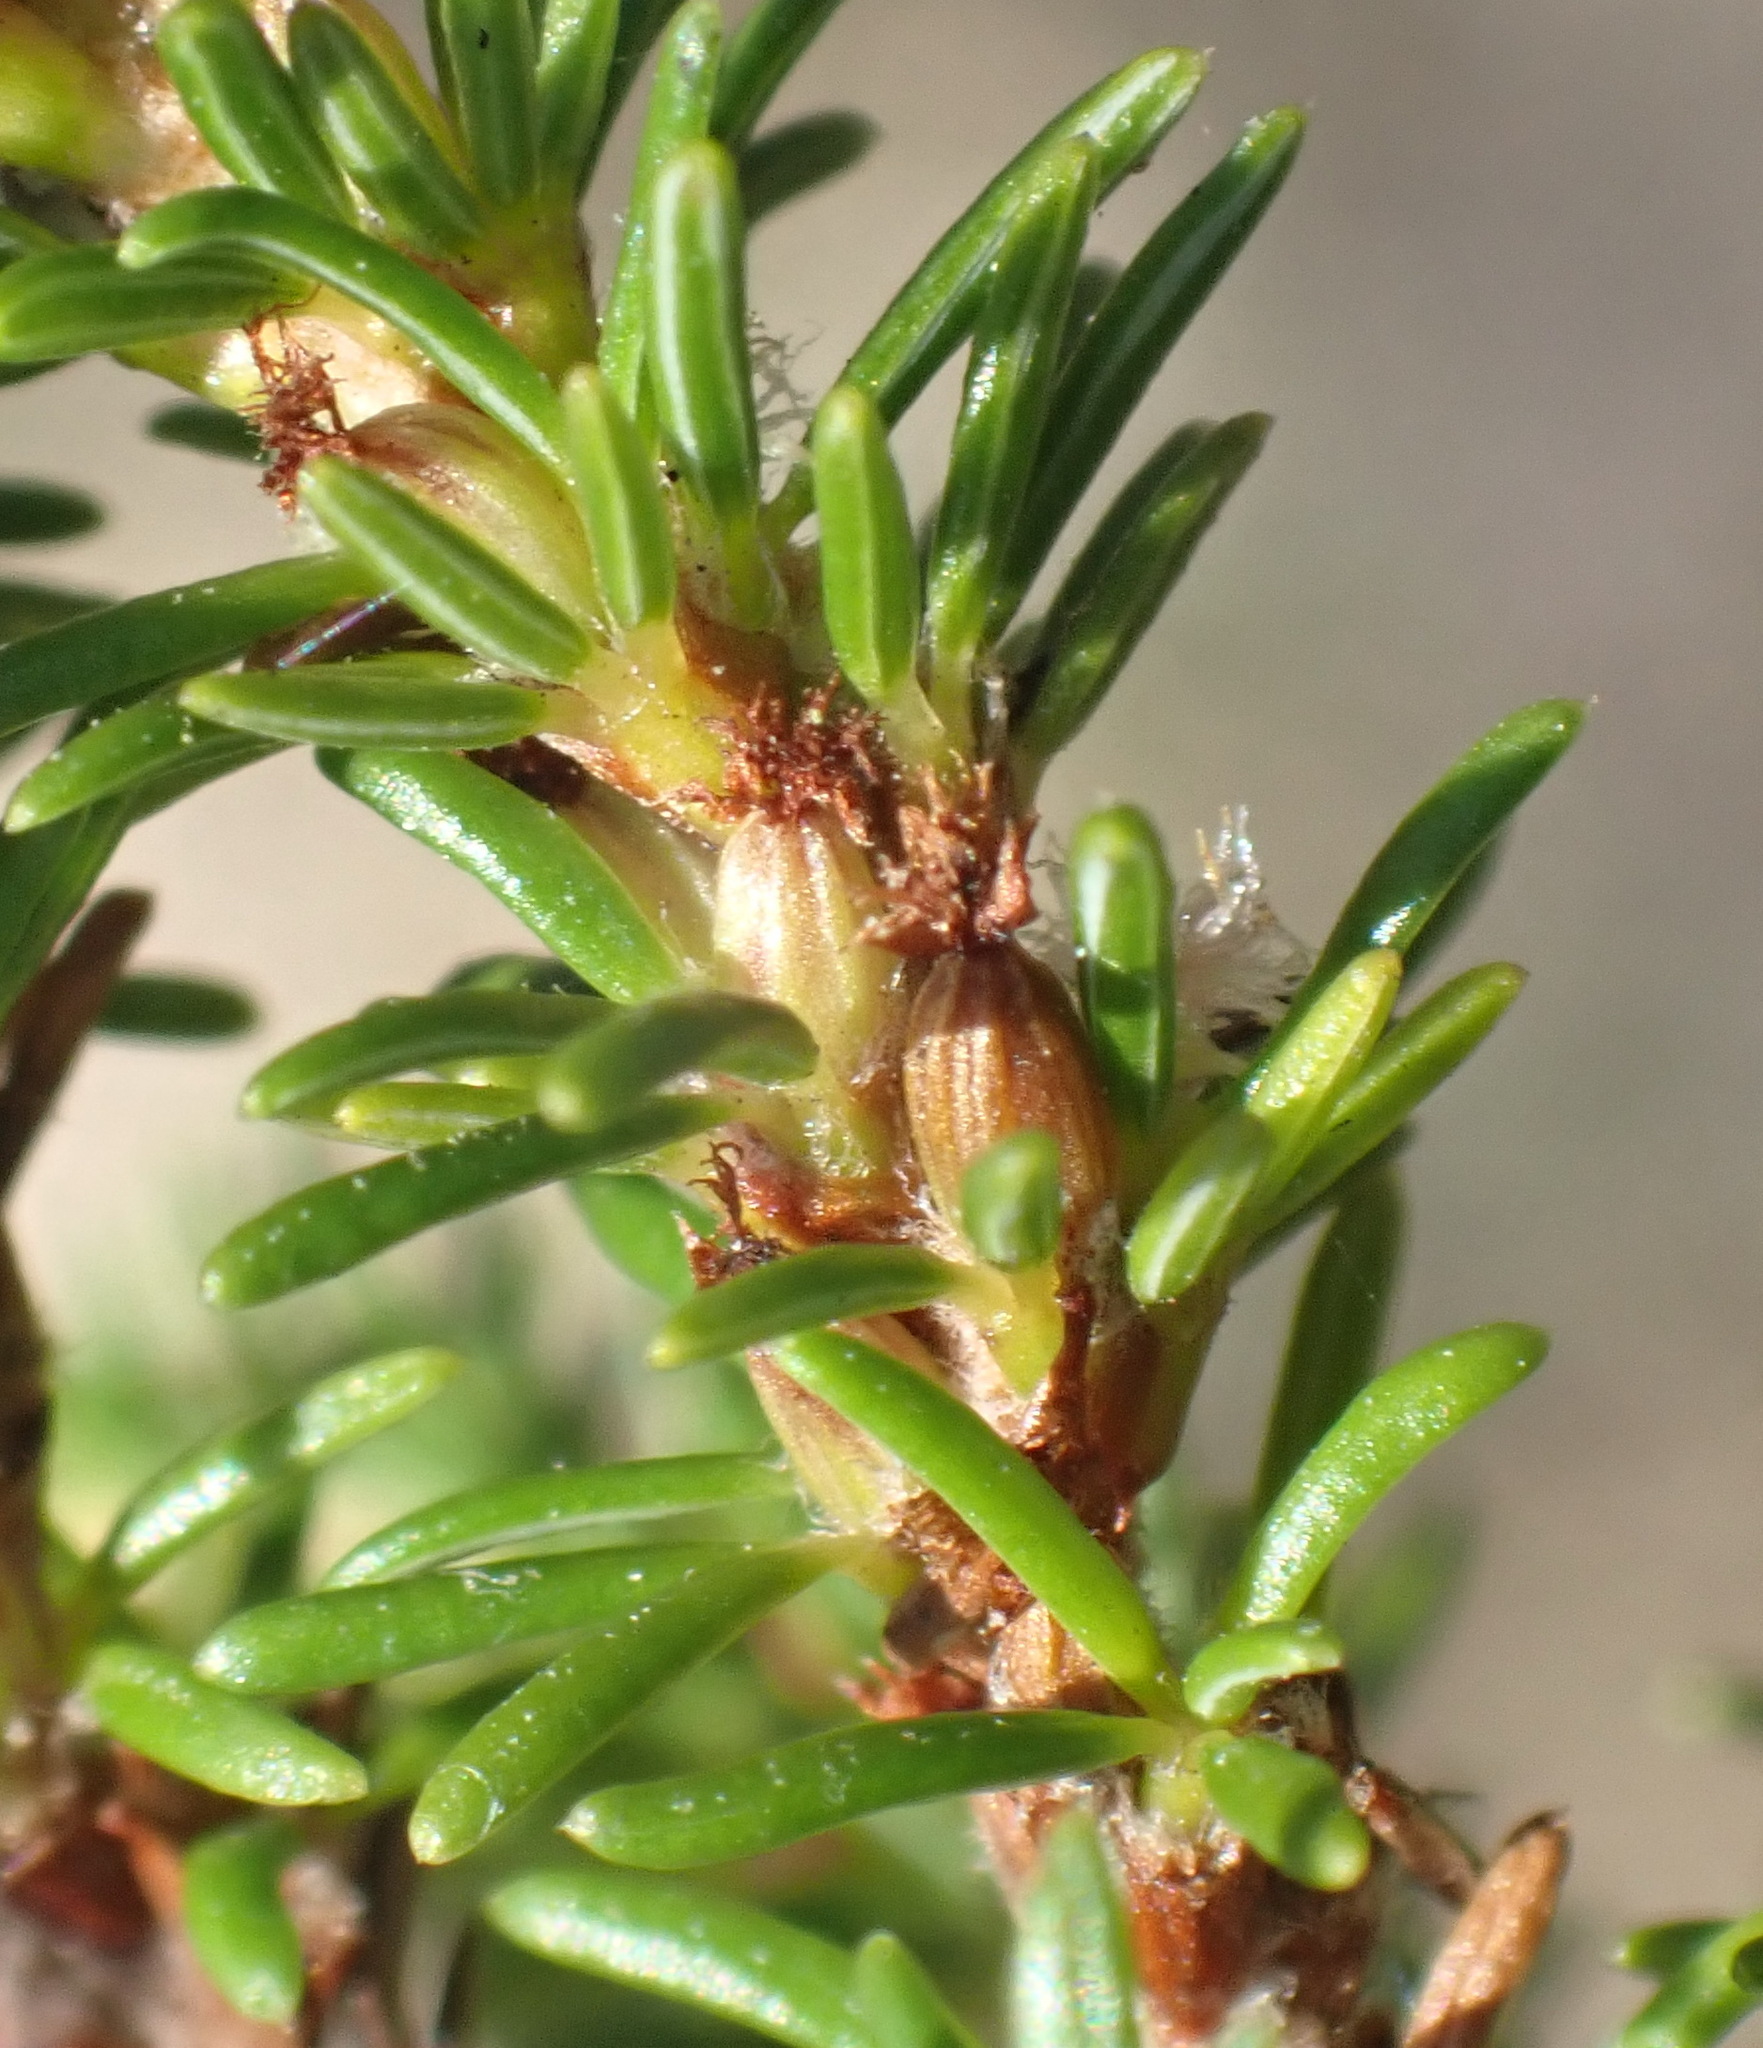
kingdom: Plantae
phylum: Tracheophyta
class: Magnoliopsida
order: Rosales
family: Rosaceae
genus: Cliffortia
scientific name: Cliffortia linearifolia
